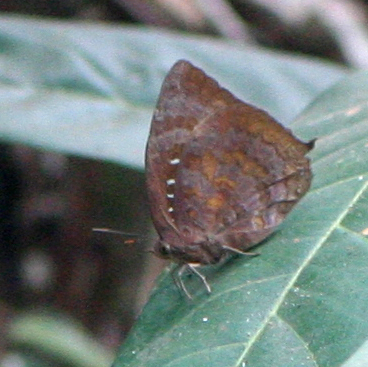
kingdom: Animalia
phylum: Arthropoda
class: Insecta
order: Lepidoptera
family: Lycaenidae
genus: Arhopala
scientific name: Arhopala centaurus
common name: Dull oak-blue
